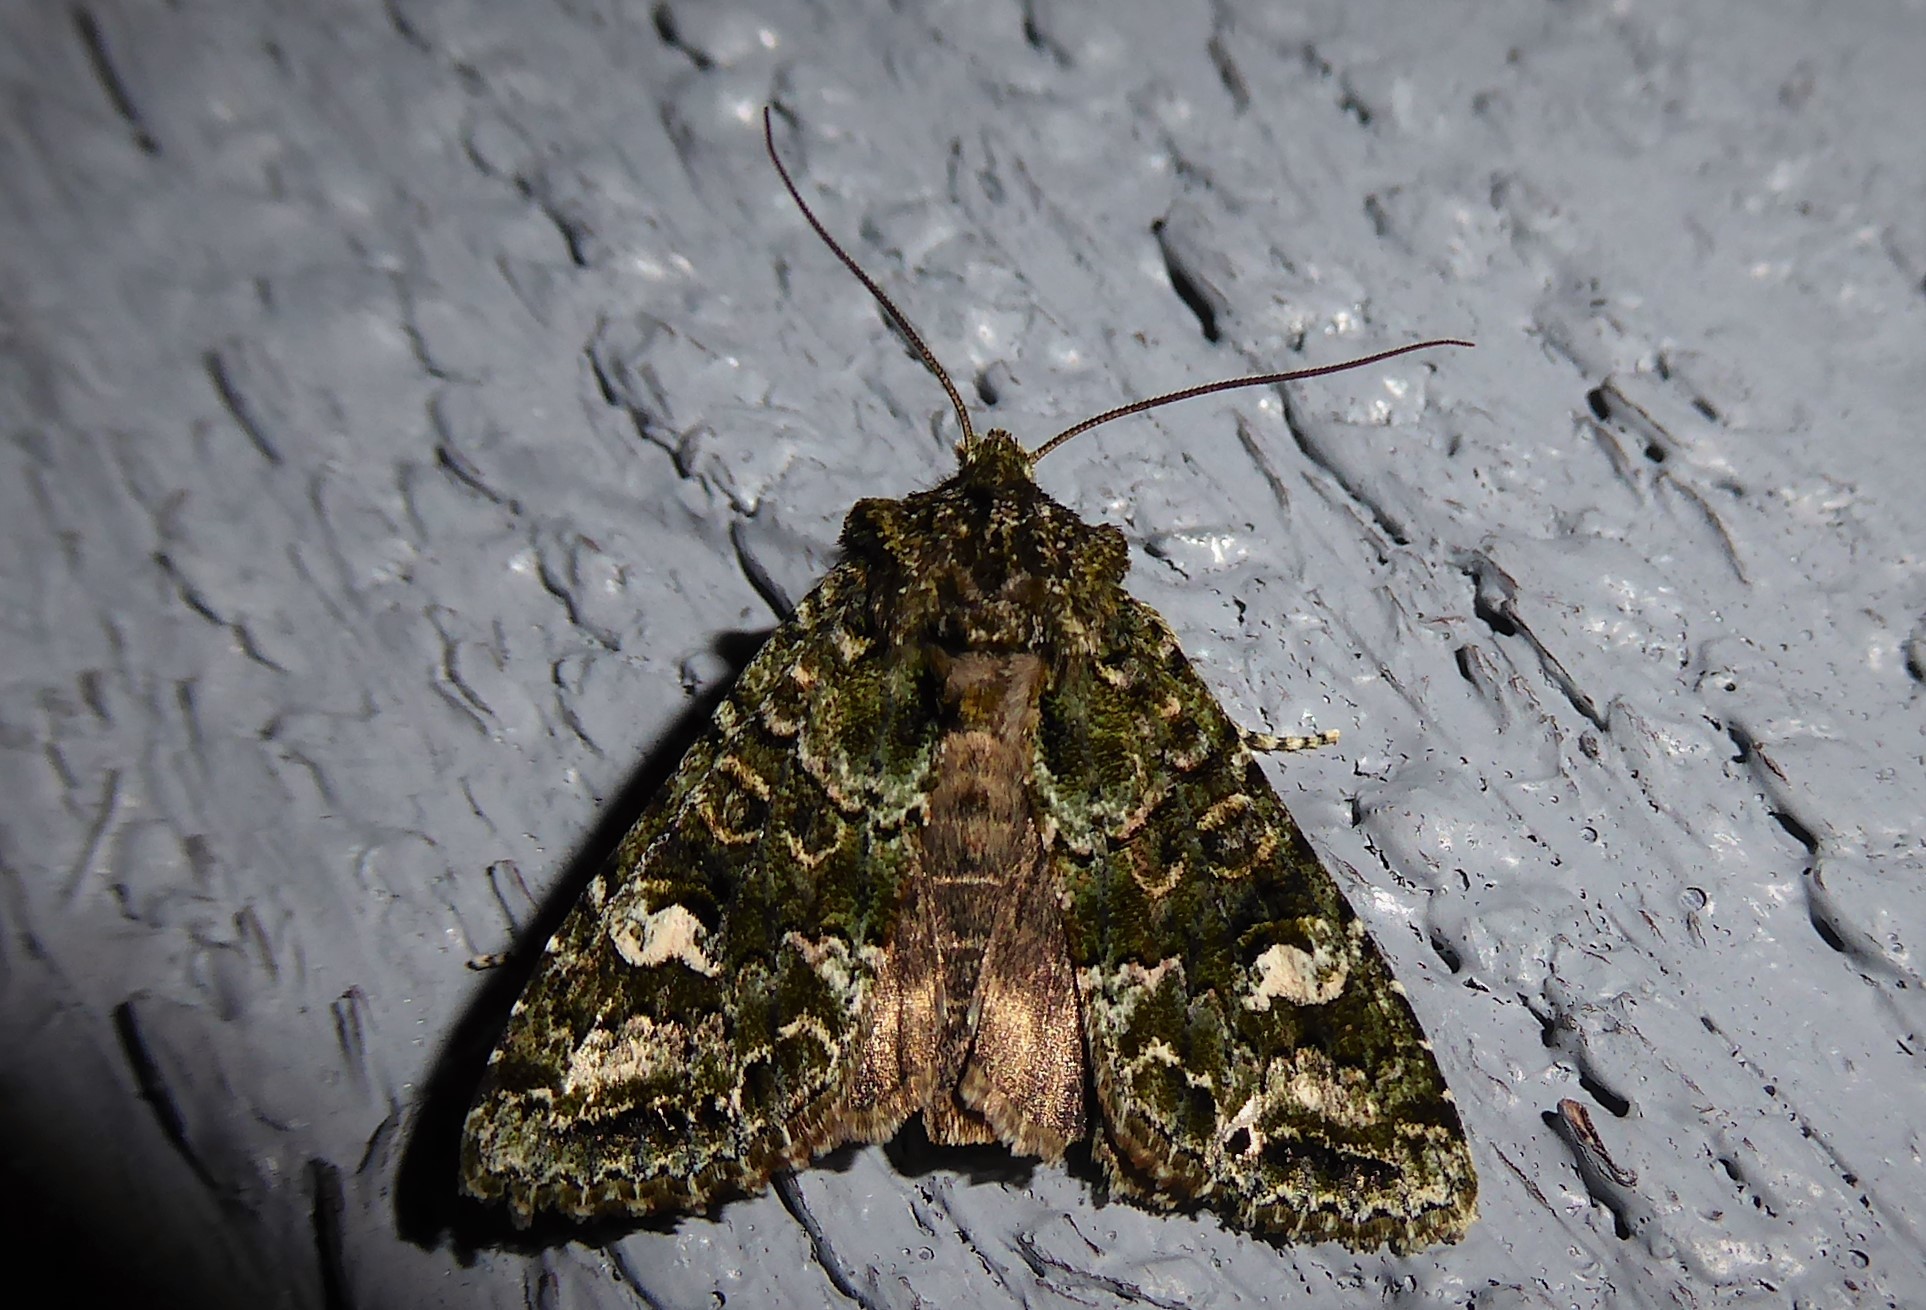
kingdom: Animalia
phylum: Arthropoda
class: Insecta
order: Lepidoptera
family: Noctuidae
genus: Ichneutica
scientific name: Ichneutica
